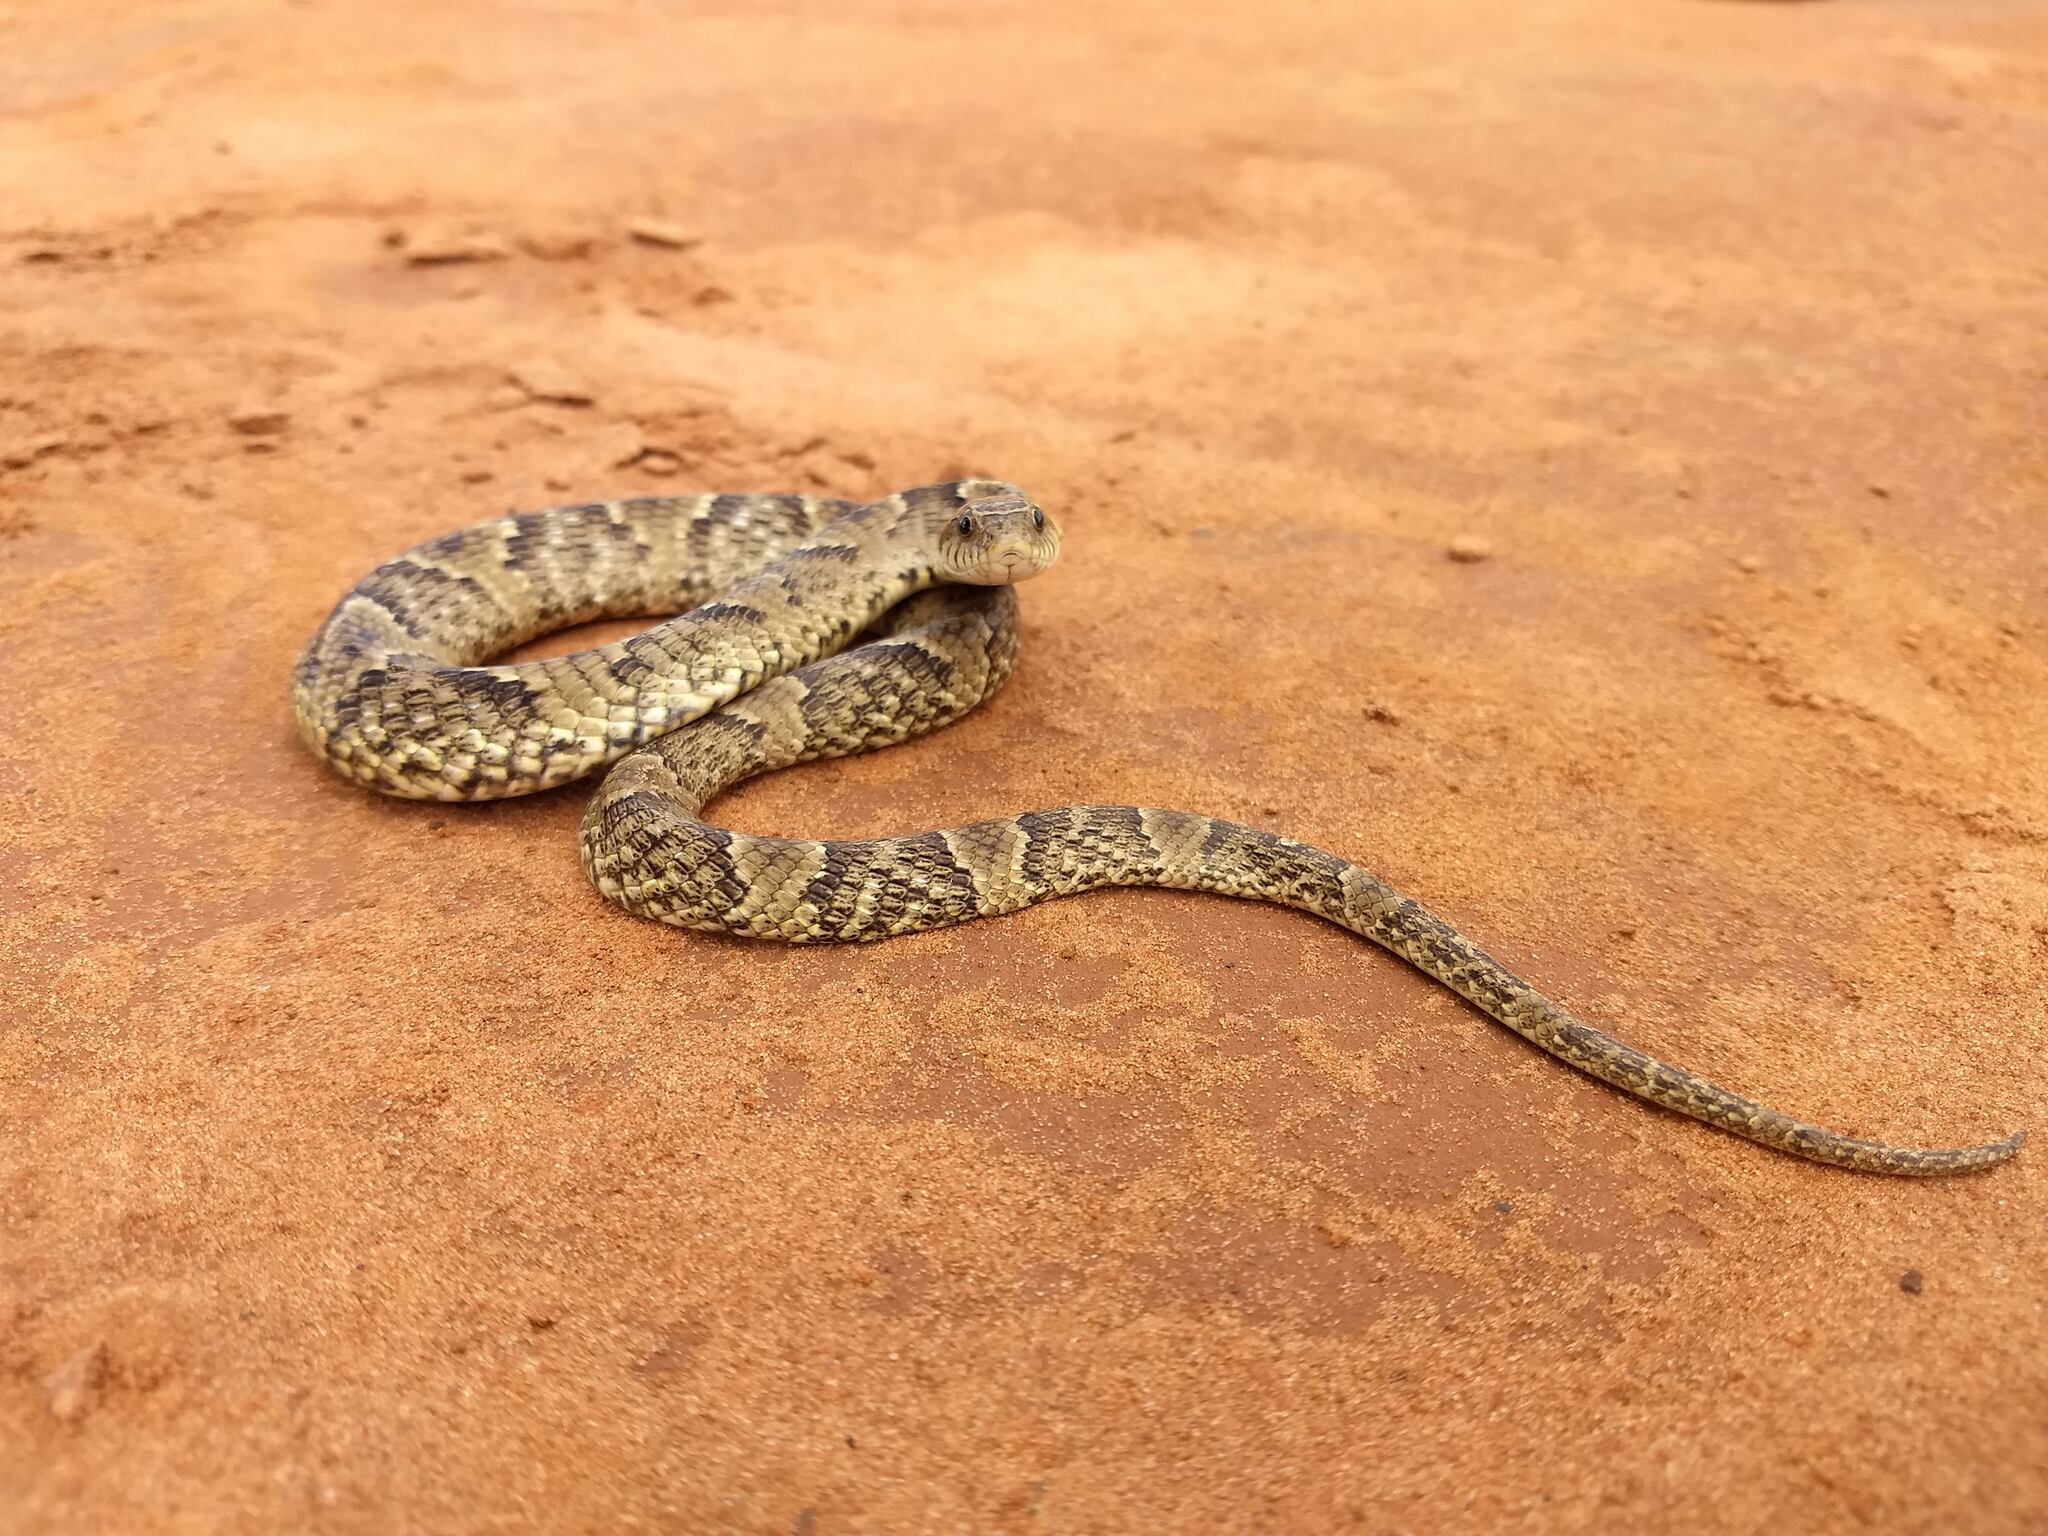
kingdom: Animalia
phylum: Chordata
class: Squamata
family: Colubridae
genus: Xenodon
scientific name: Xenodon merremii
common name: Wagler's snake
